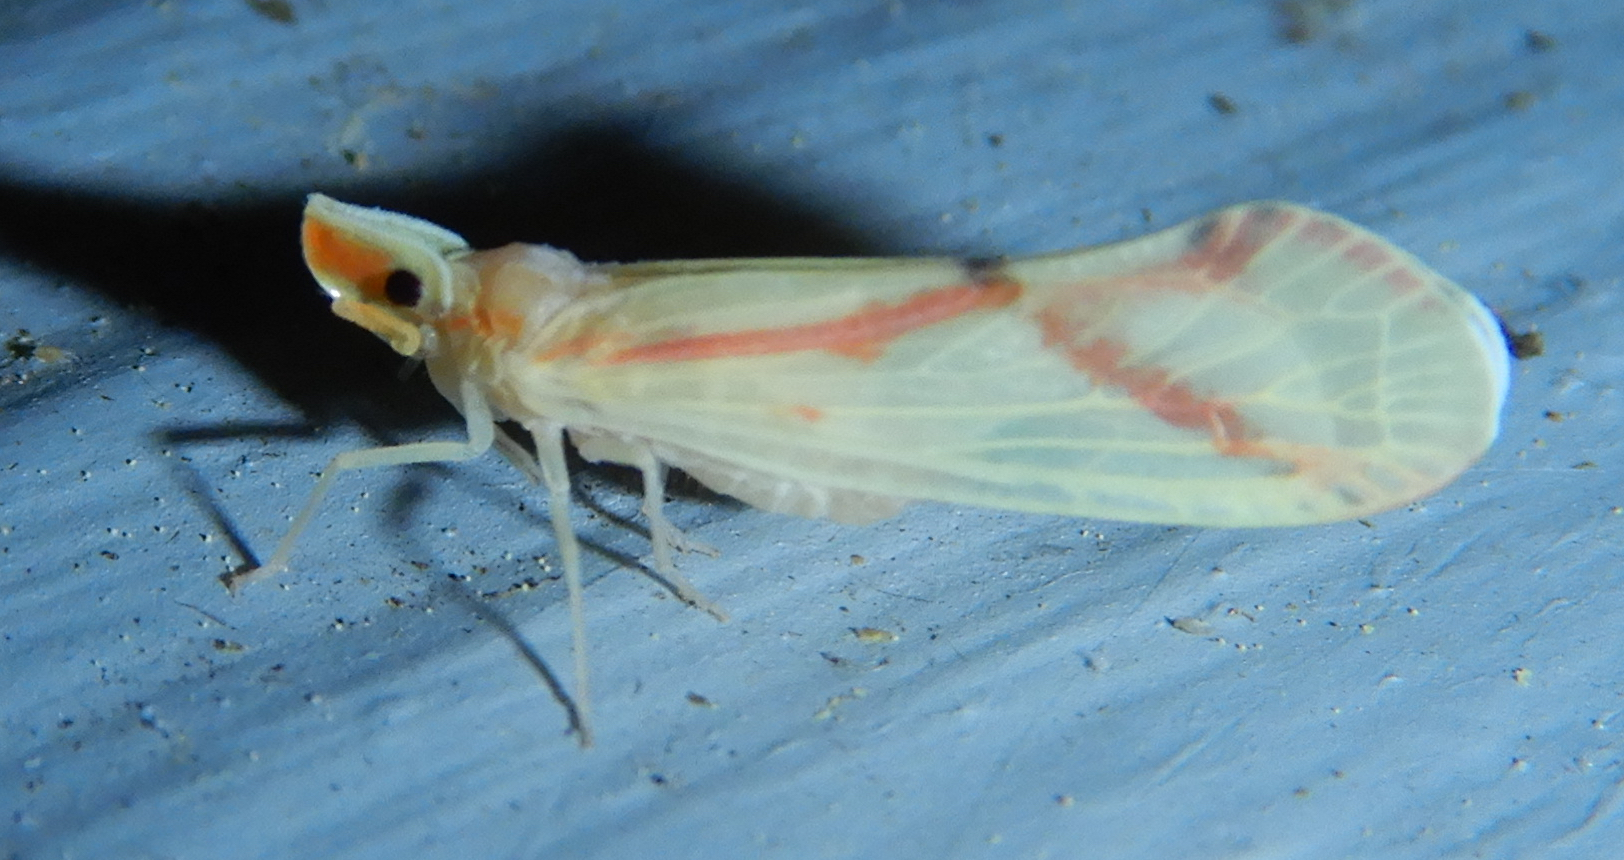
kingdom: Animalia
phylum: Arthropoda
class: Insecta
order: Hemiptera
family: Derbidae
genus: Otiocerus
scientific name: Otiocerus coquebertii
